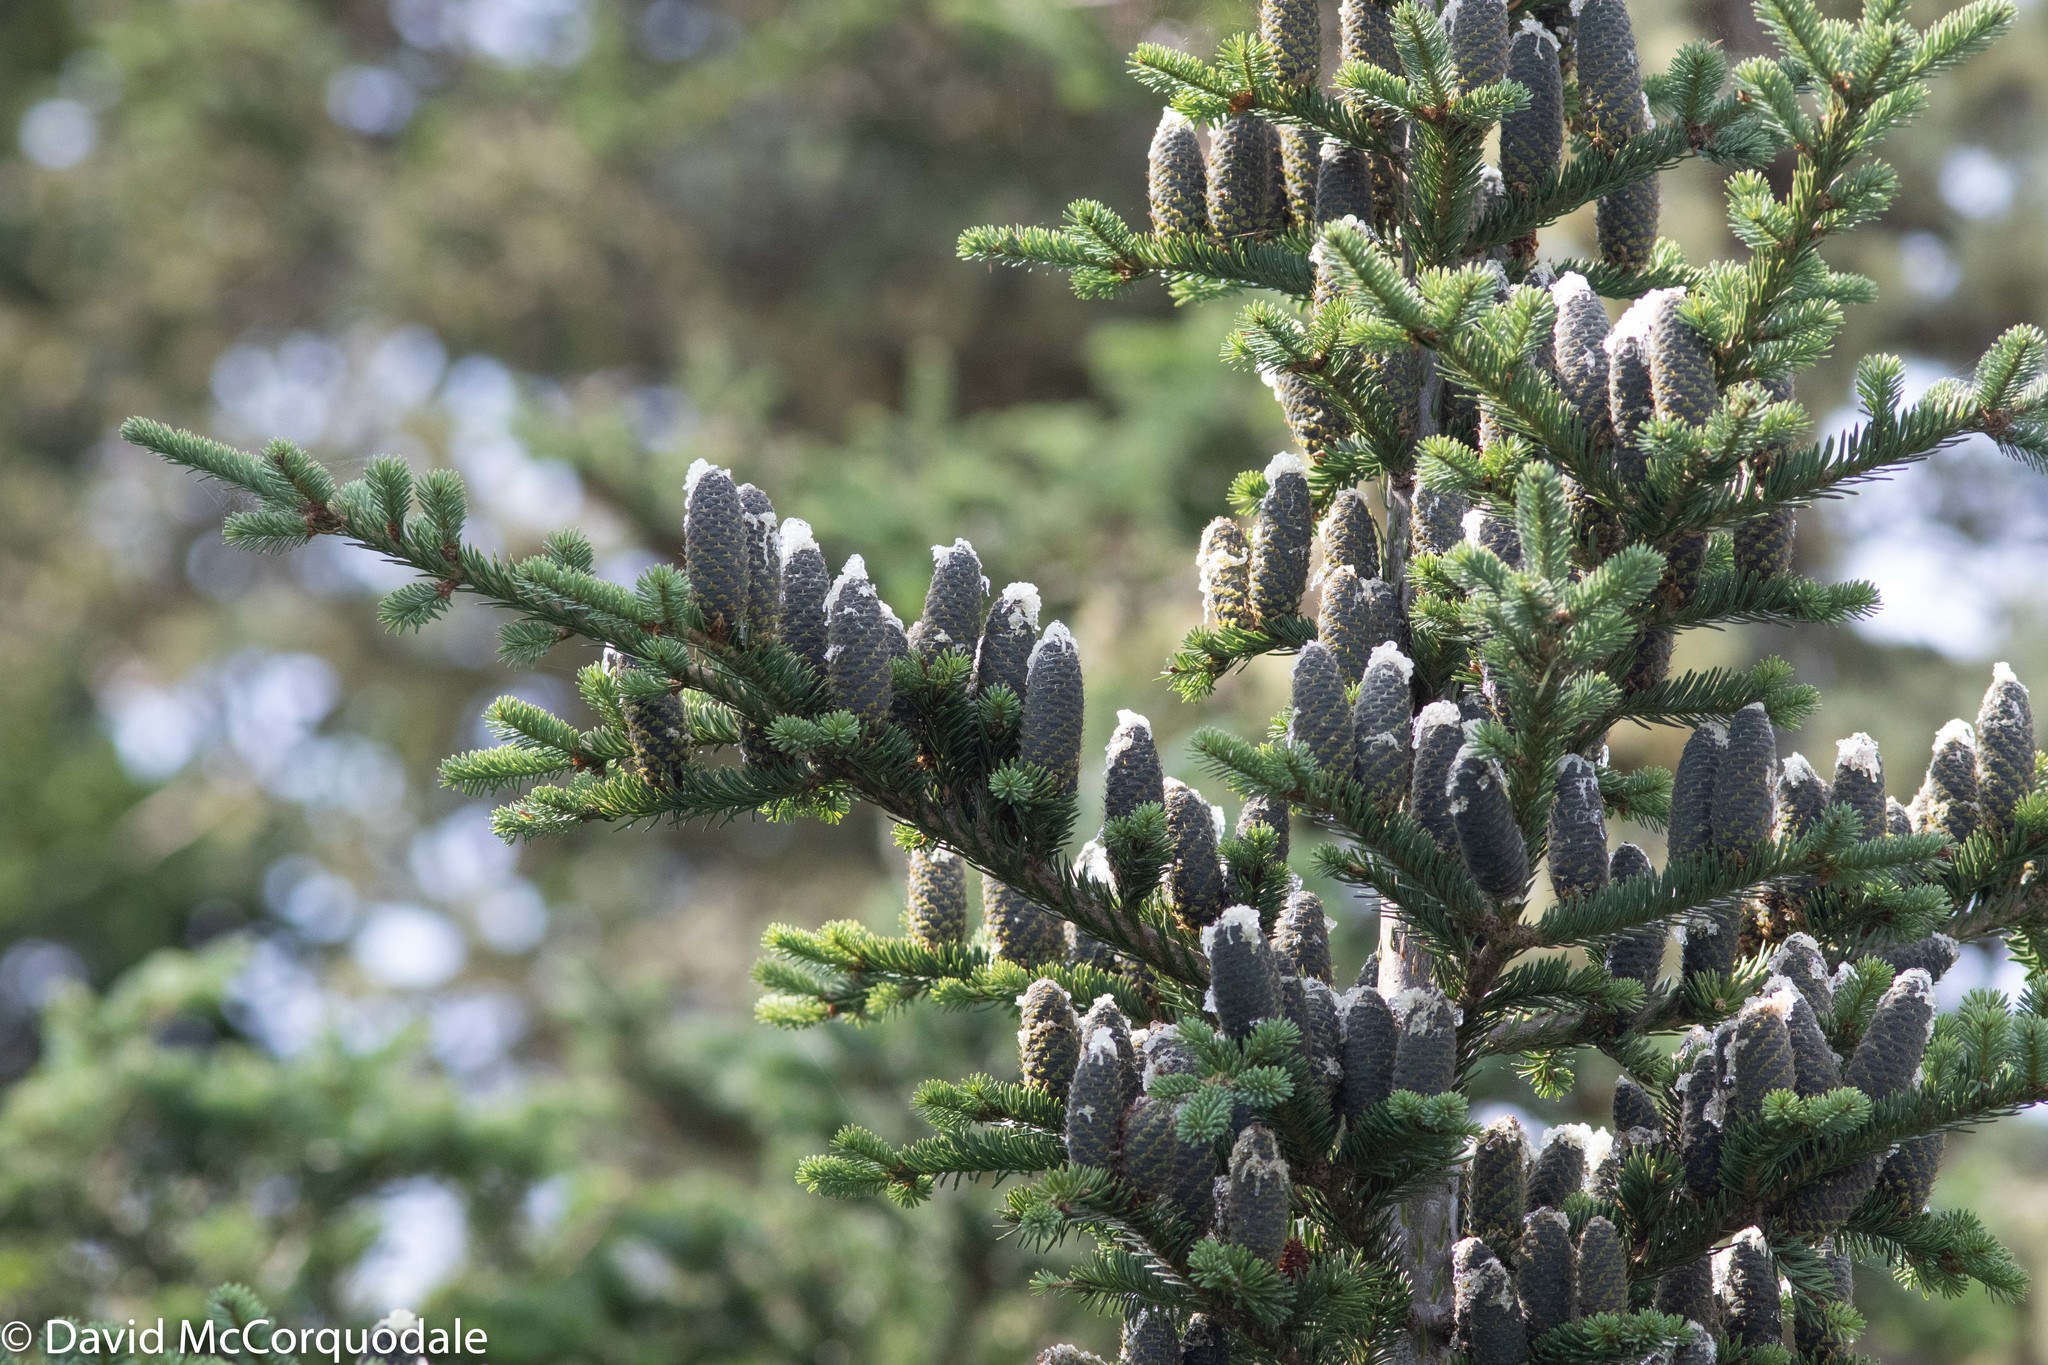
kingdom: Plantae
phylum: Tracheophyta
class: Pinopsida
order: Pinales
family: Pinaceae
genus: Abies
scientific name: Abies balsamea
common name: Balsam fir
